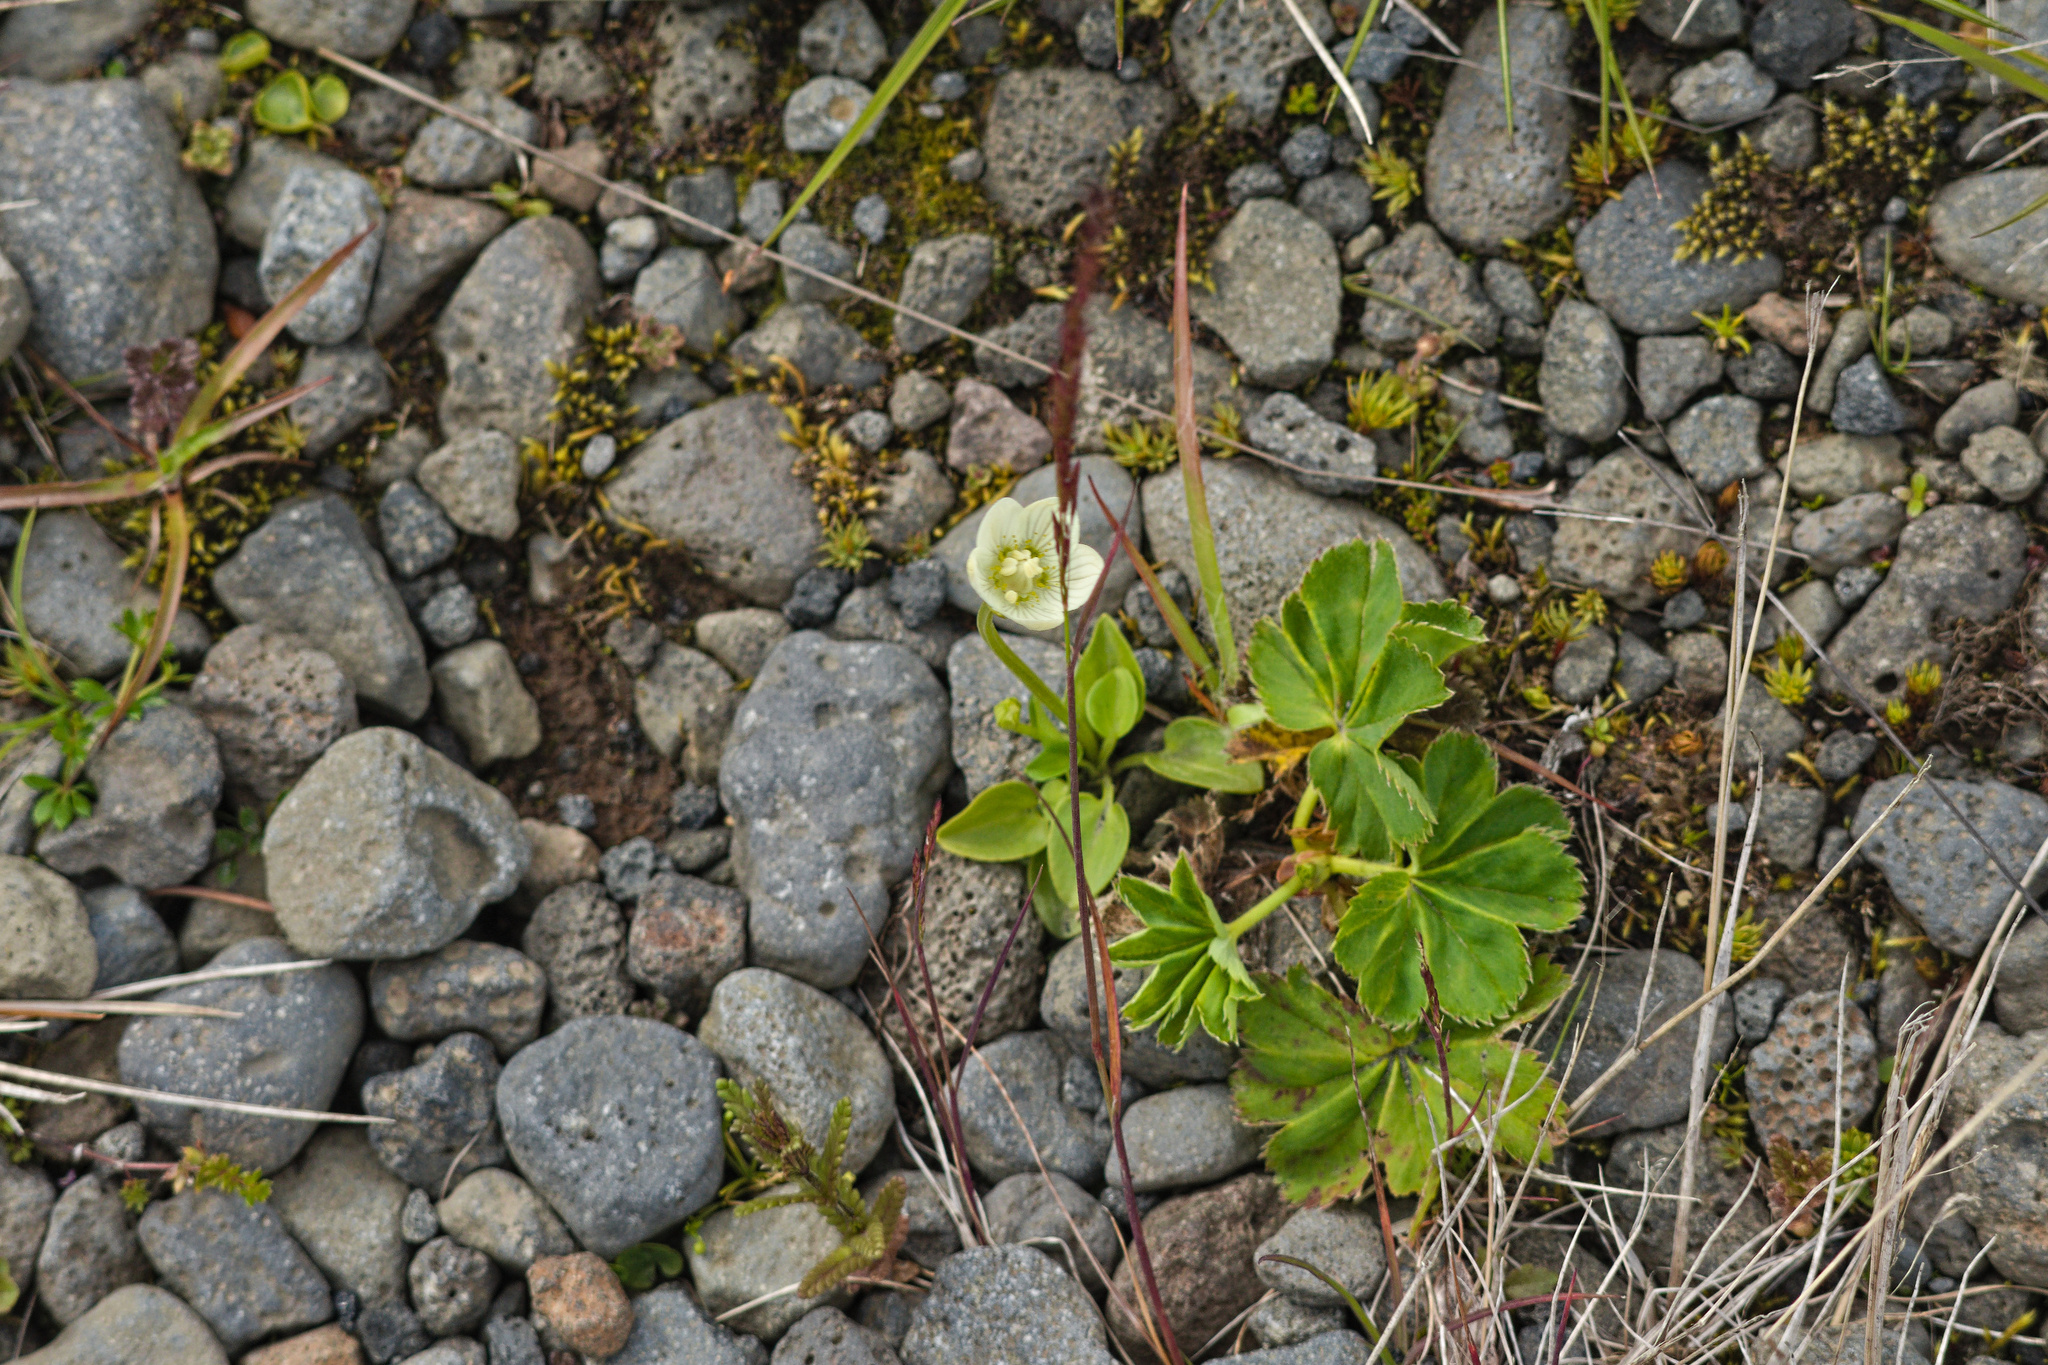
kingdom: Plantae
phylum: Tracheophyta
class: Magnoliopsida
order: Celastrales
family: Parnassiaceae
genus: Parnassia
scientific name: Parnassia palustris
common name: Grass-of-parnassus
